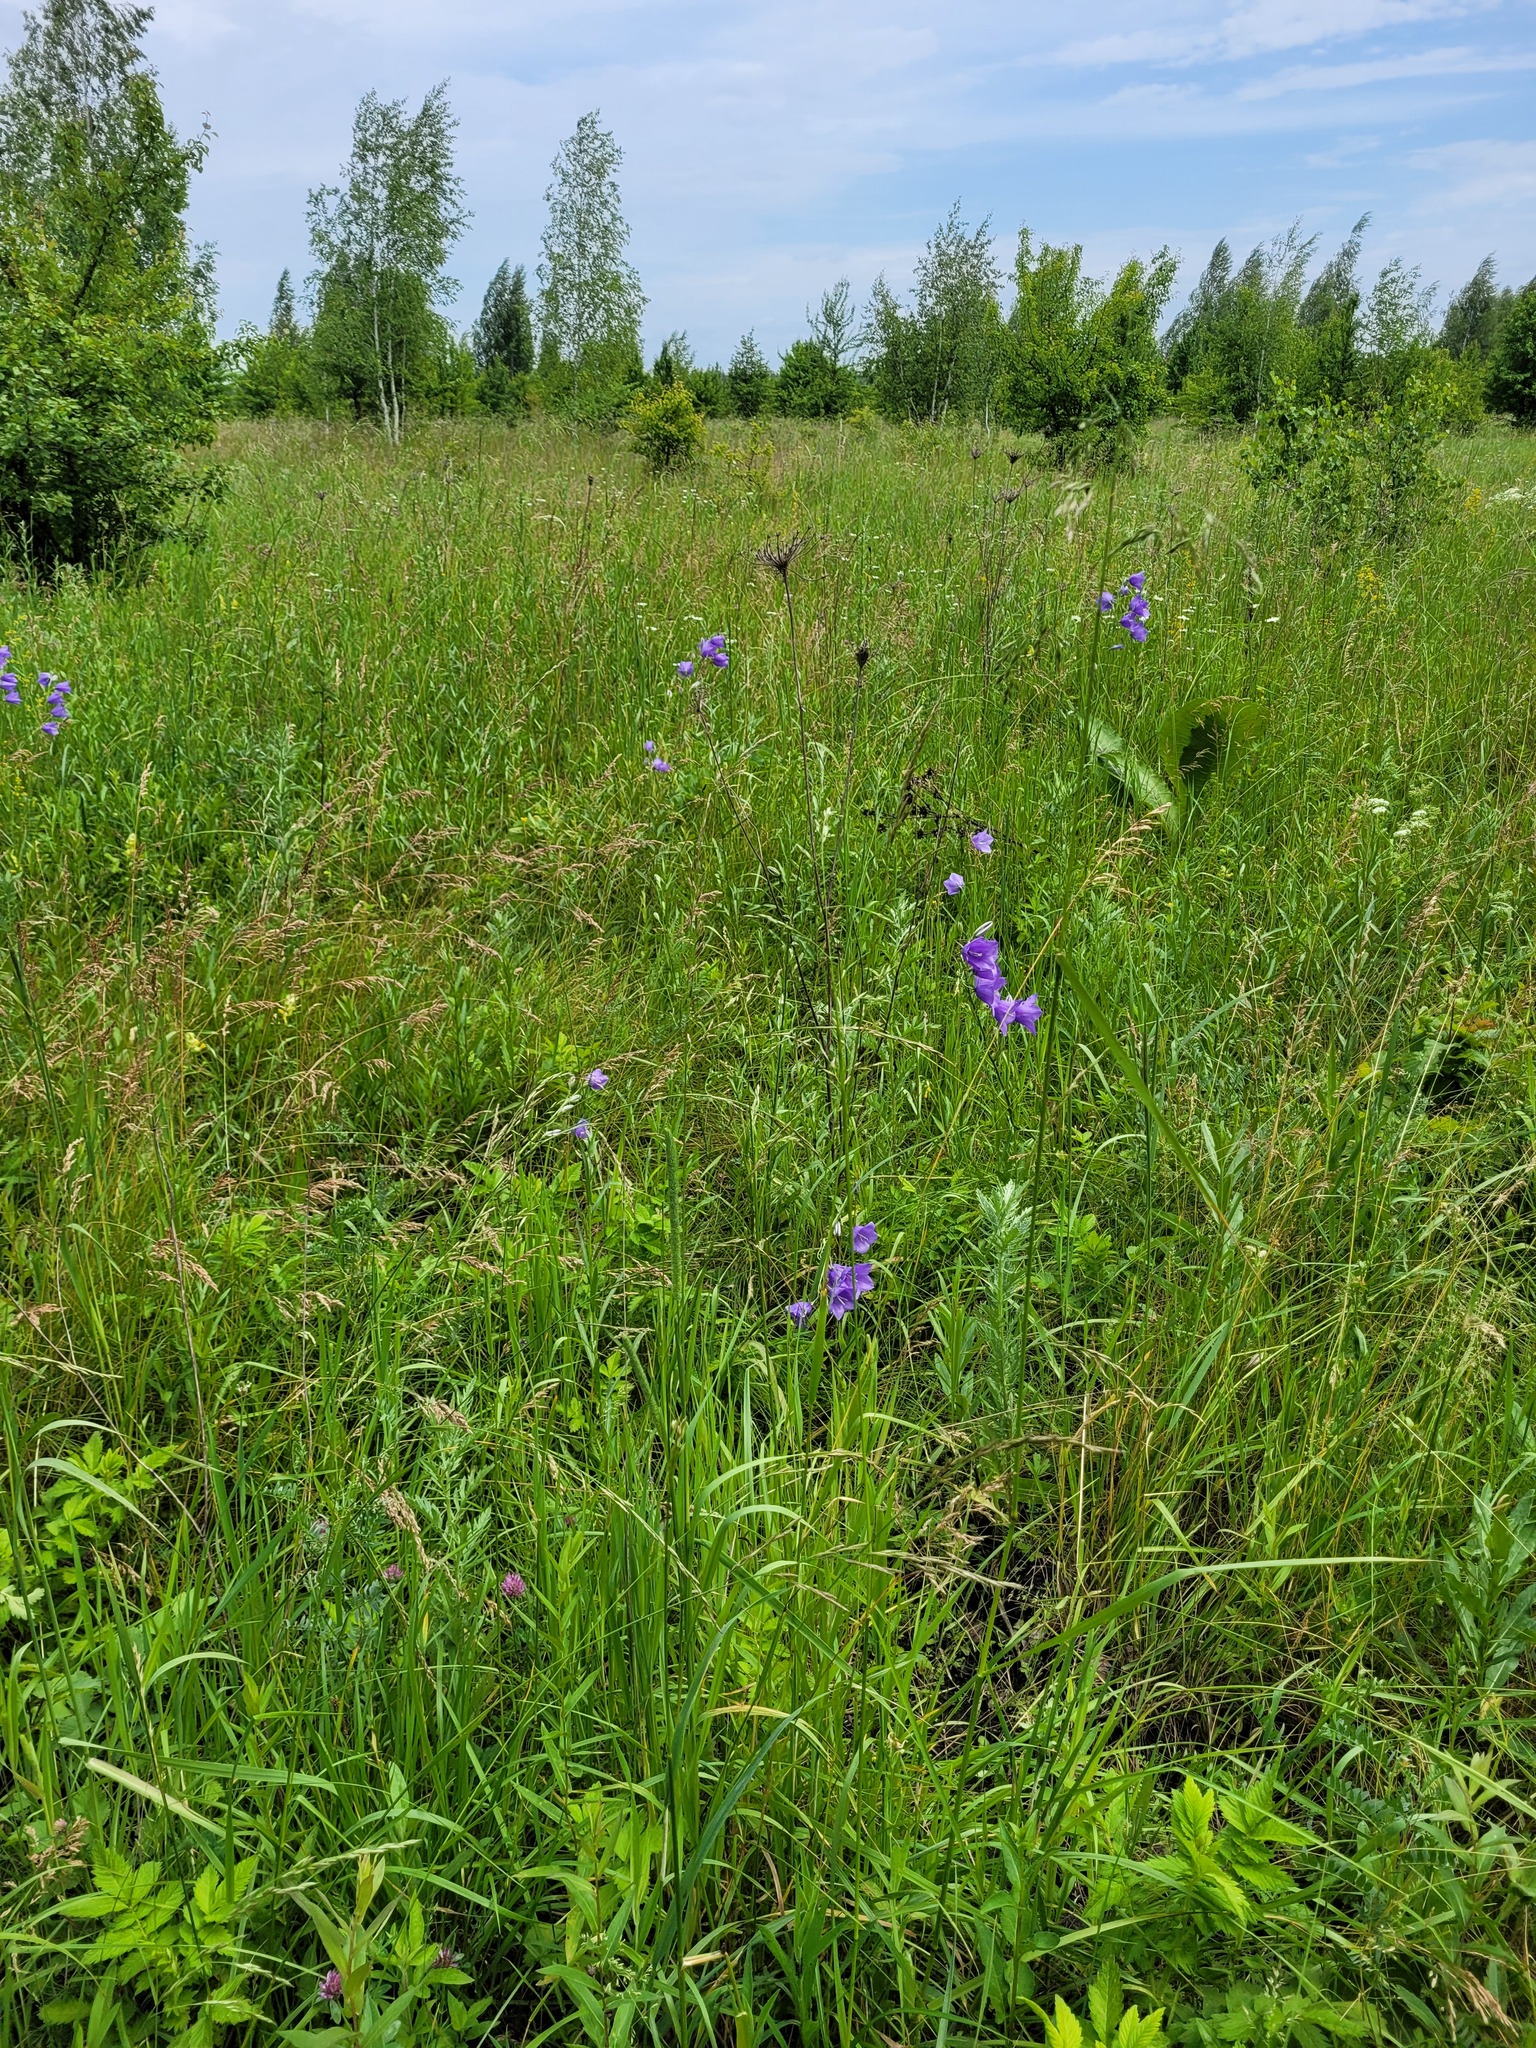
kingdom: Plantae
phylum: Tracheophyta
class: Magnoliopsida
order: Asterales
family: Campanulaceae
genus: Campanula
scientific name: Campanula persicifolia
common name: Peach-leaved bellflower
